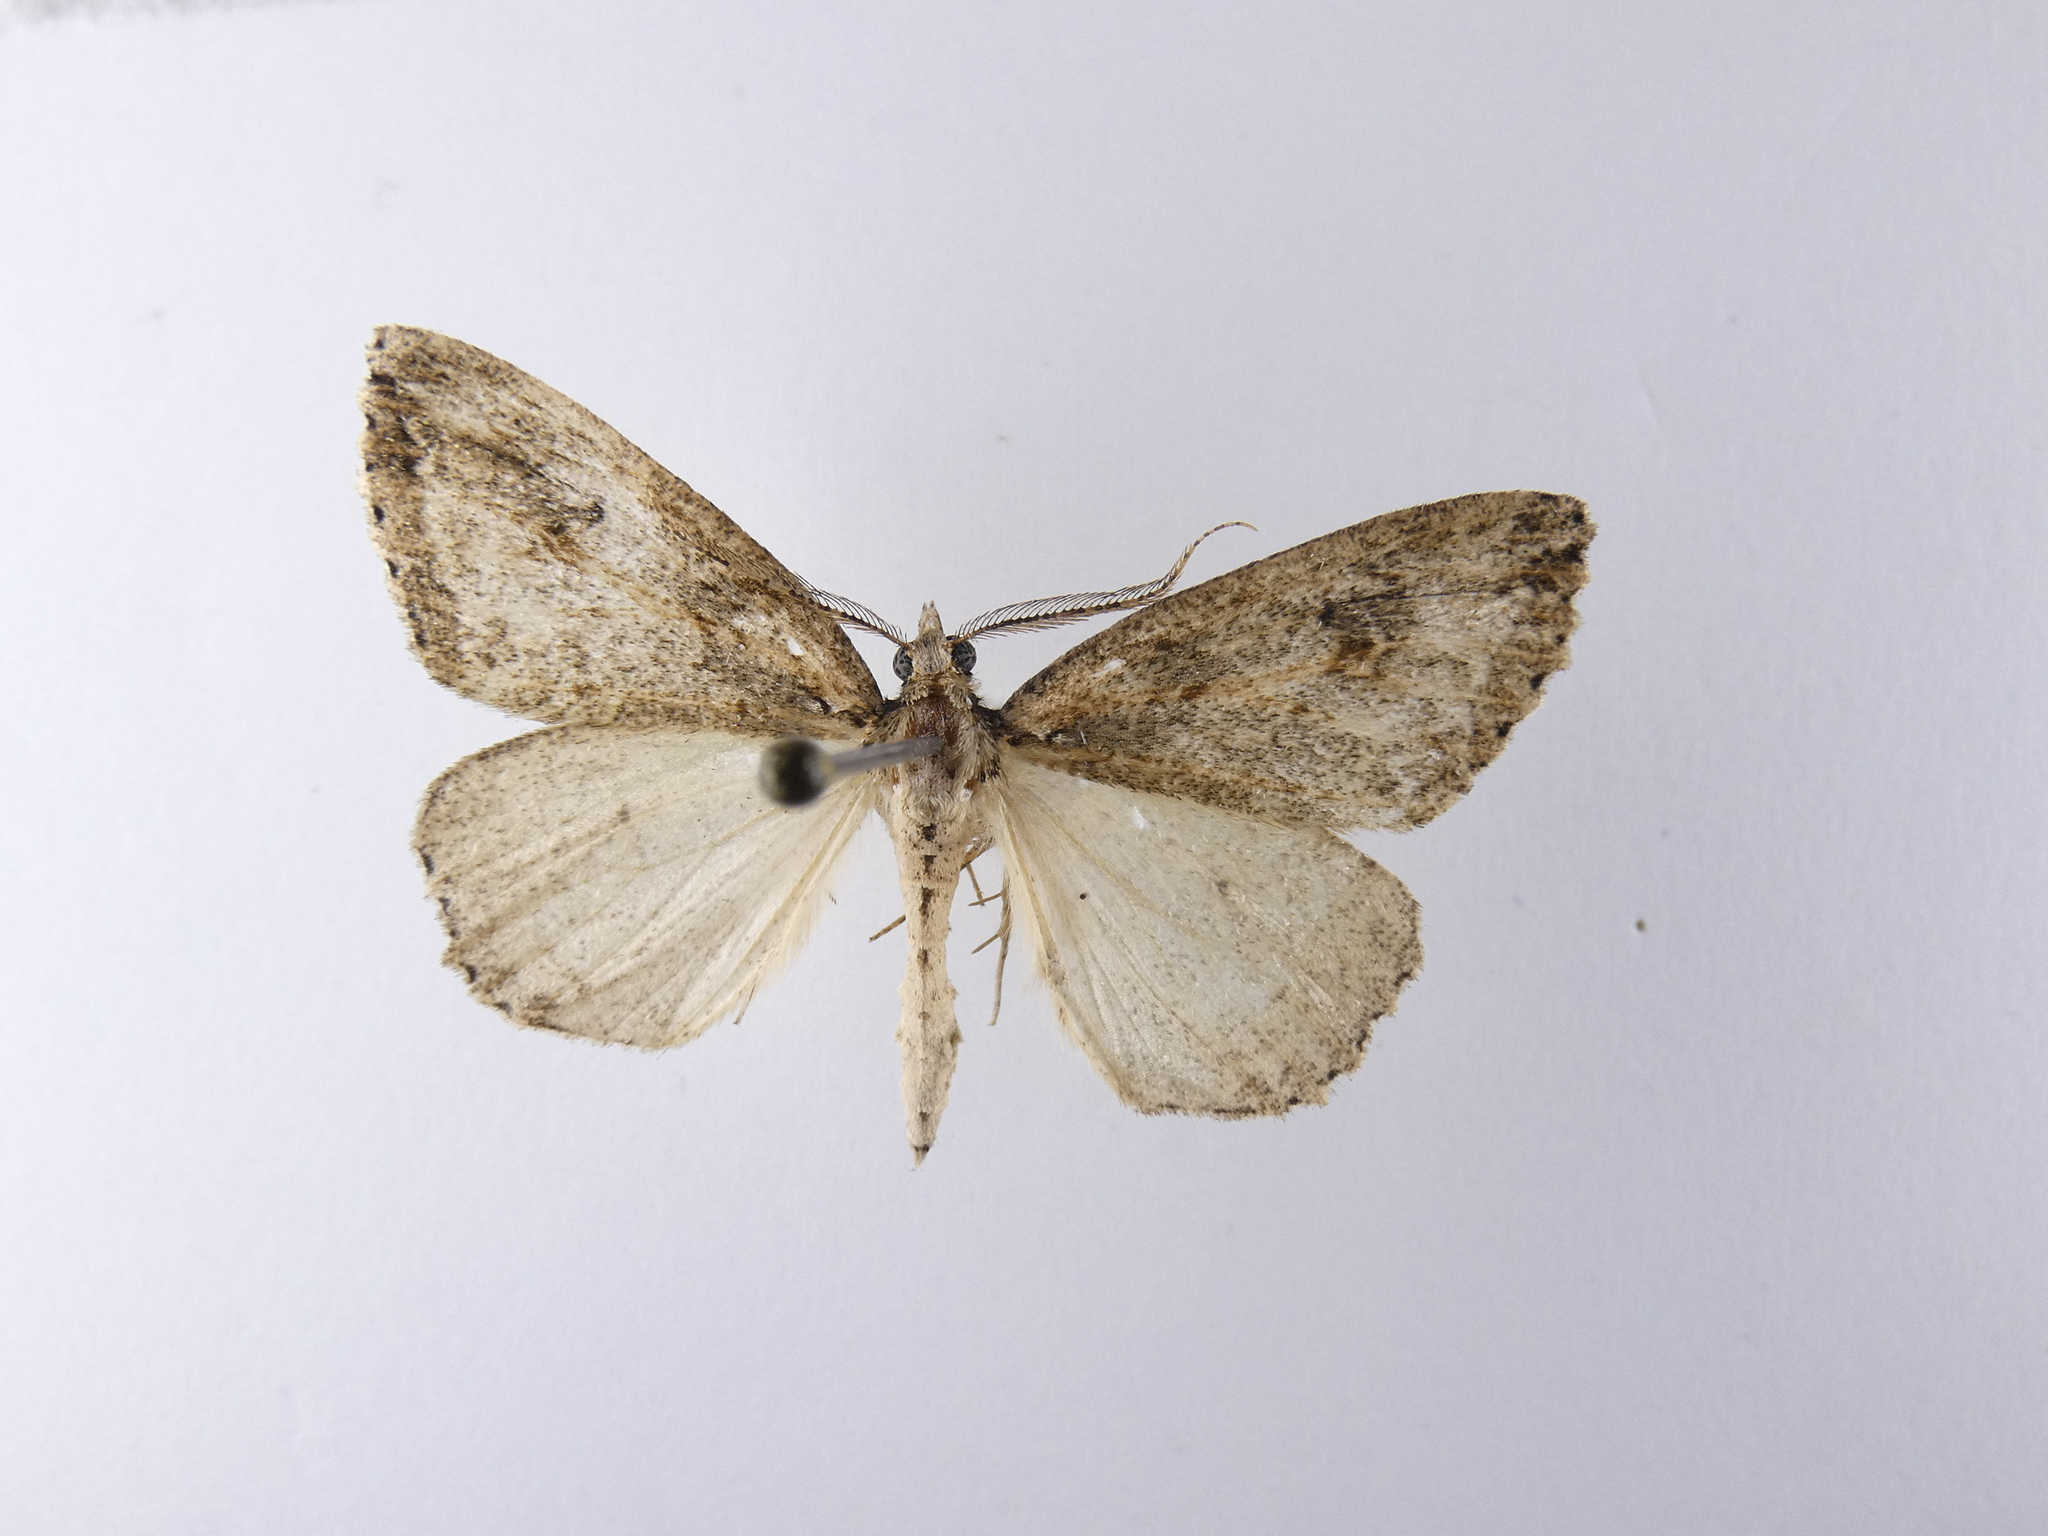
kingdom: Animalia
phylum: Arthropoda
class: Insecta
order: Lepidoptera
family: Geometridae
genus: Pseudocoremia
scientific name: Pseudocoremia rudisata
